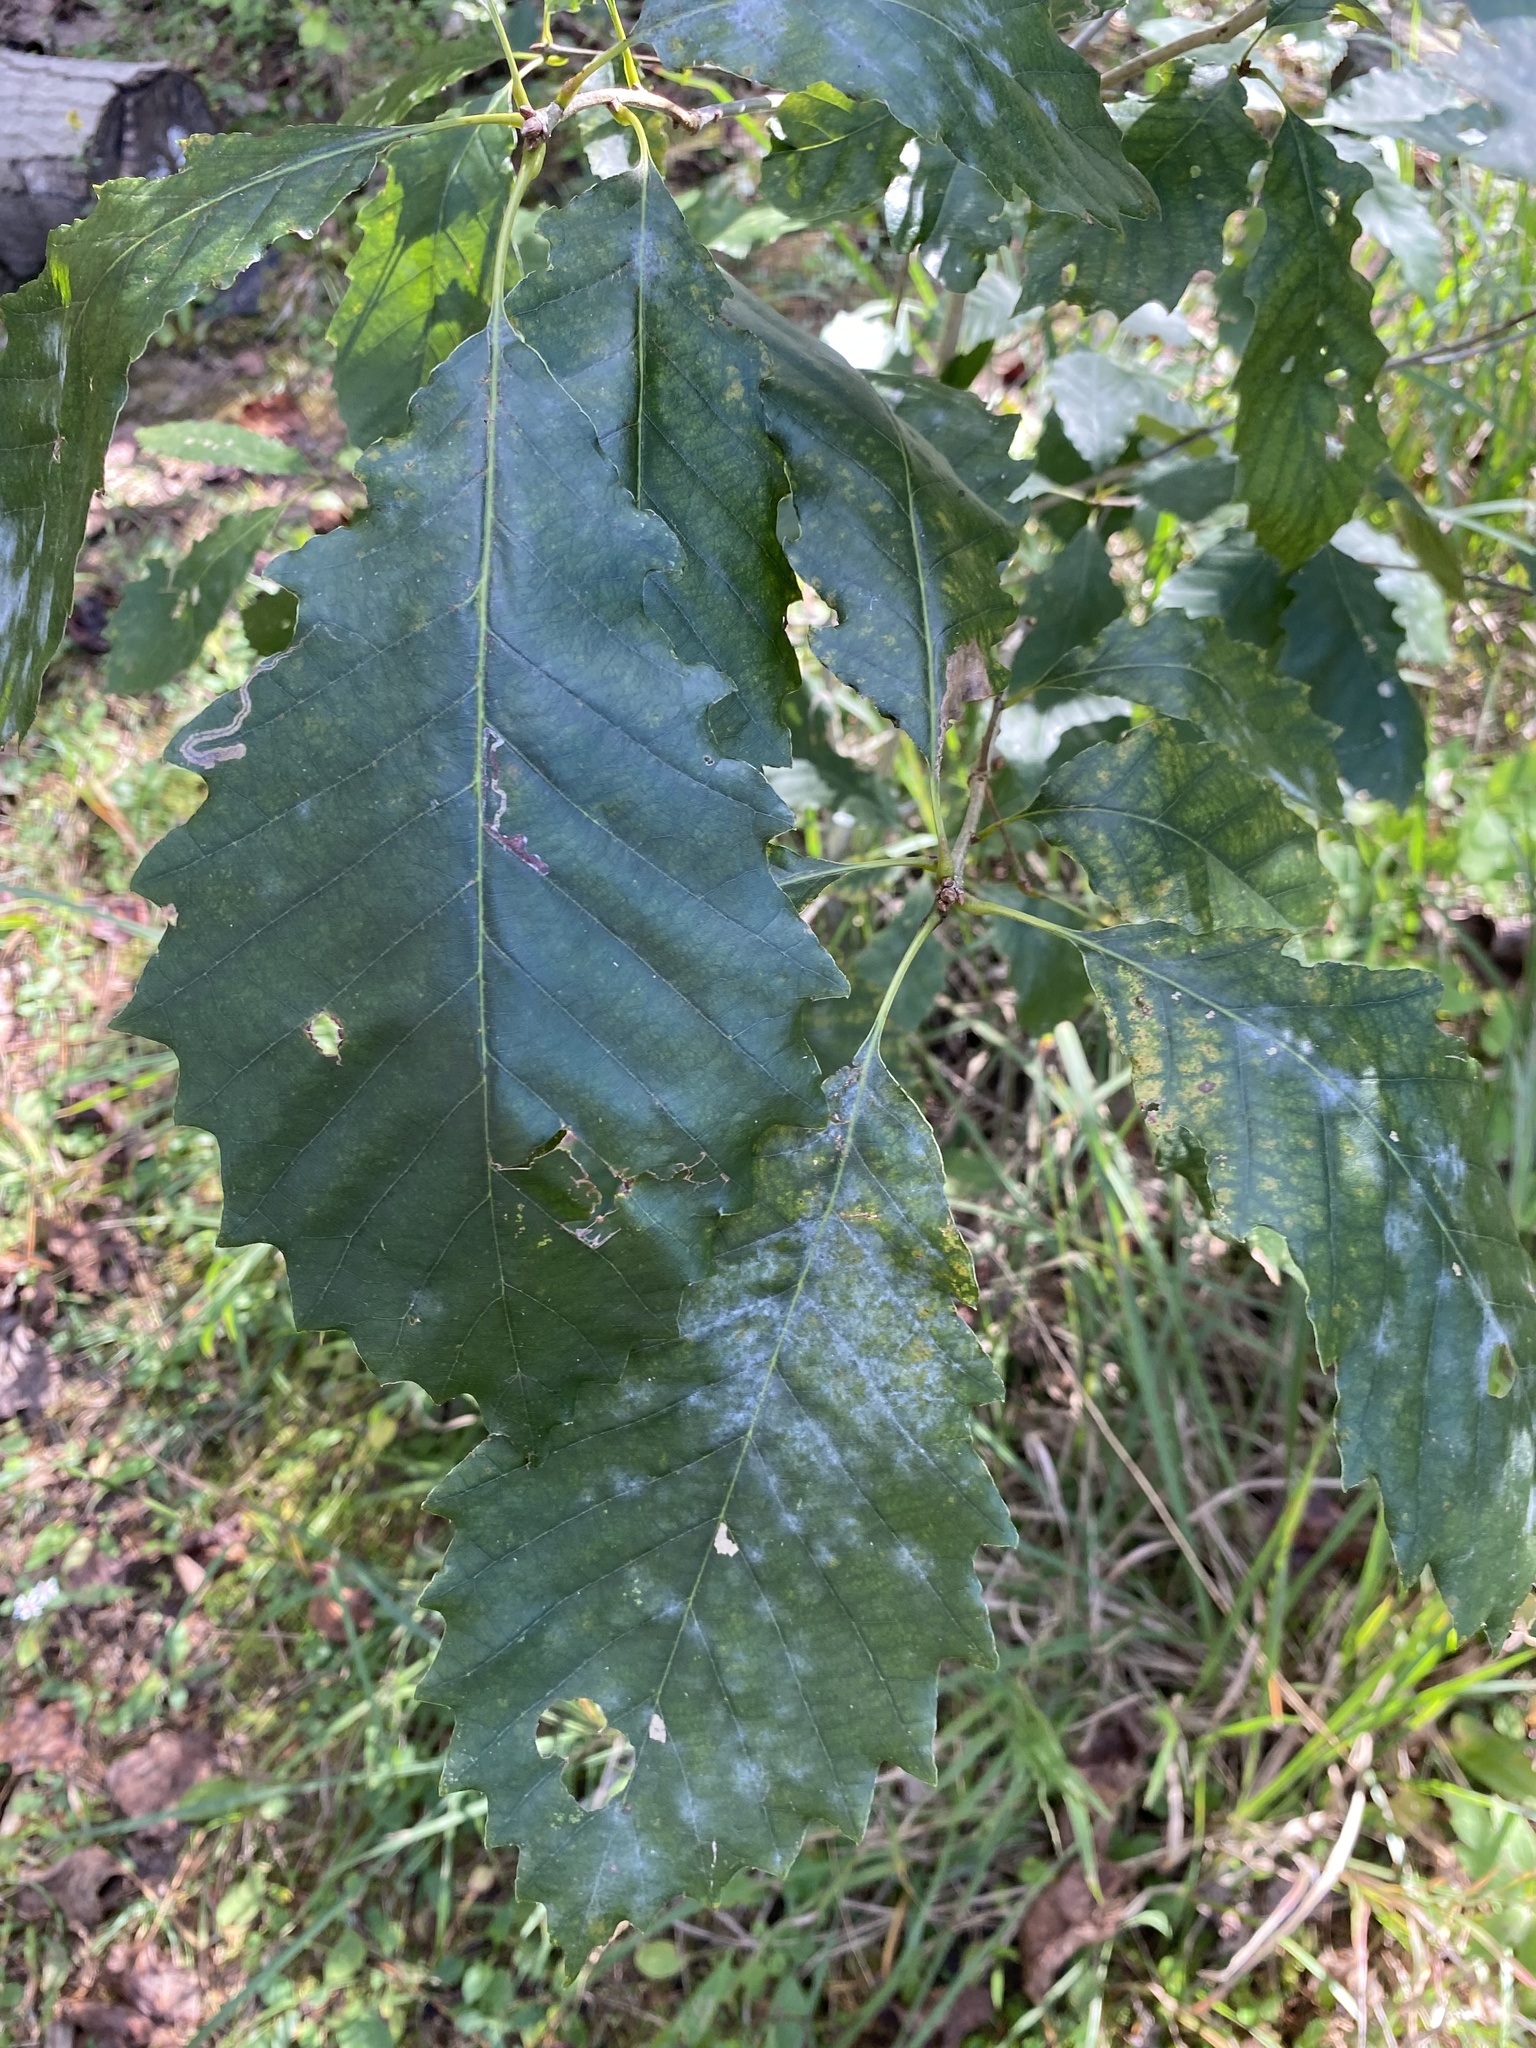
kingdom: Plantae
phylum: Tracheophyta
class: Magnoliopsida
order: Fagales
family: Fagaceae
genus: Quercus
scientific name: Quercus michauxii
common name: Swamp chestnut oak
